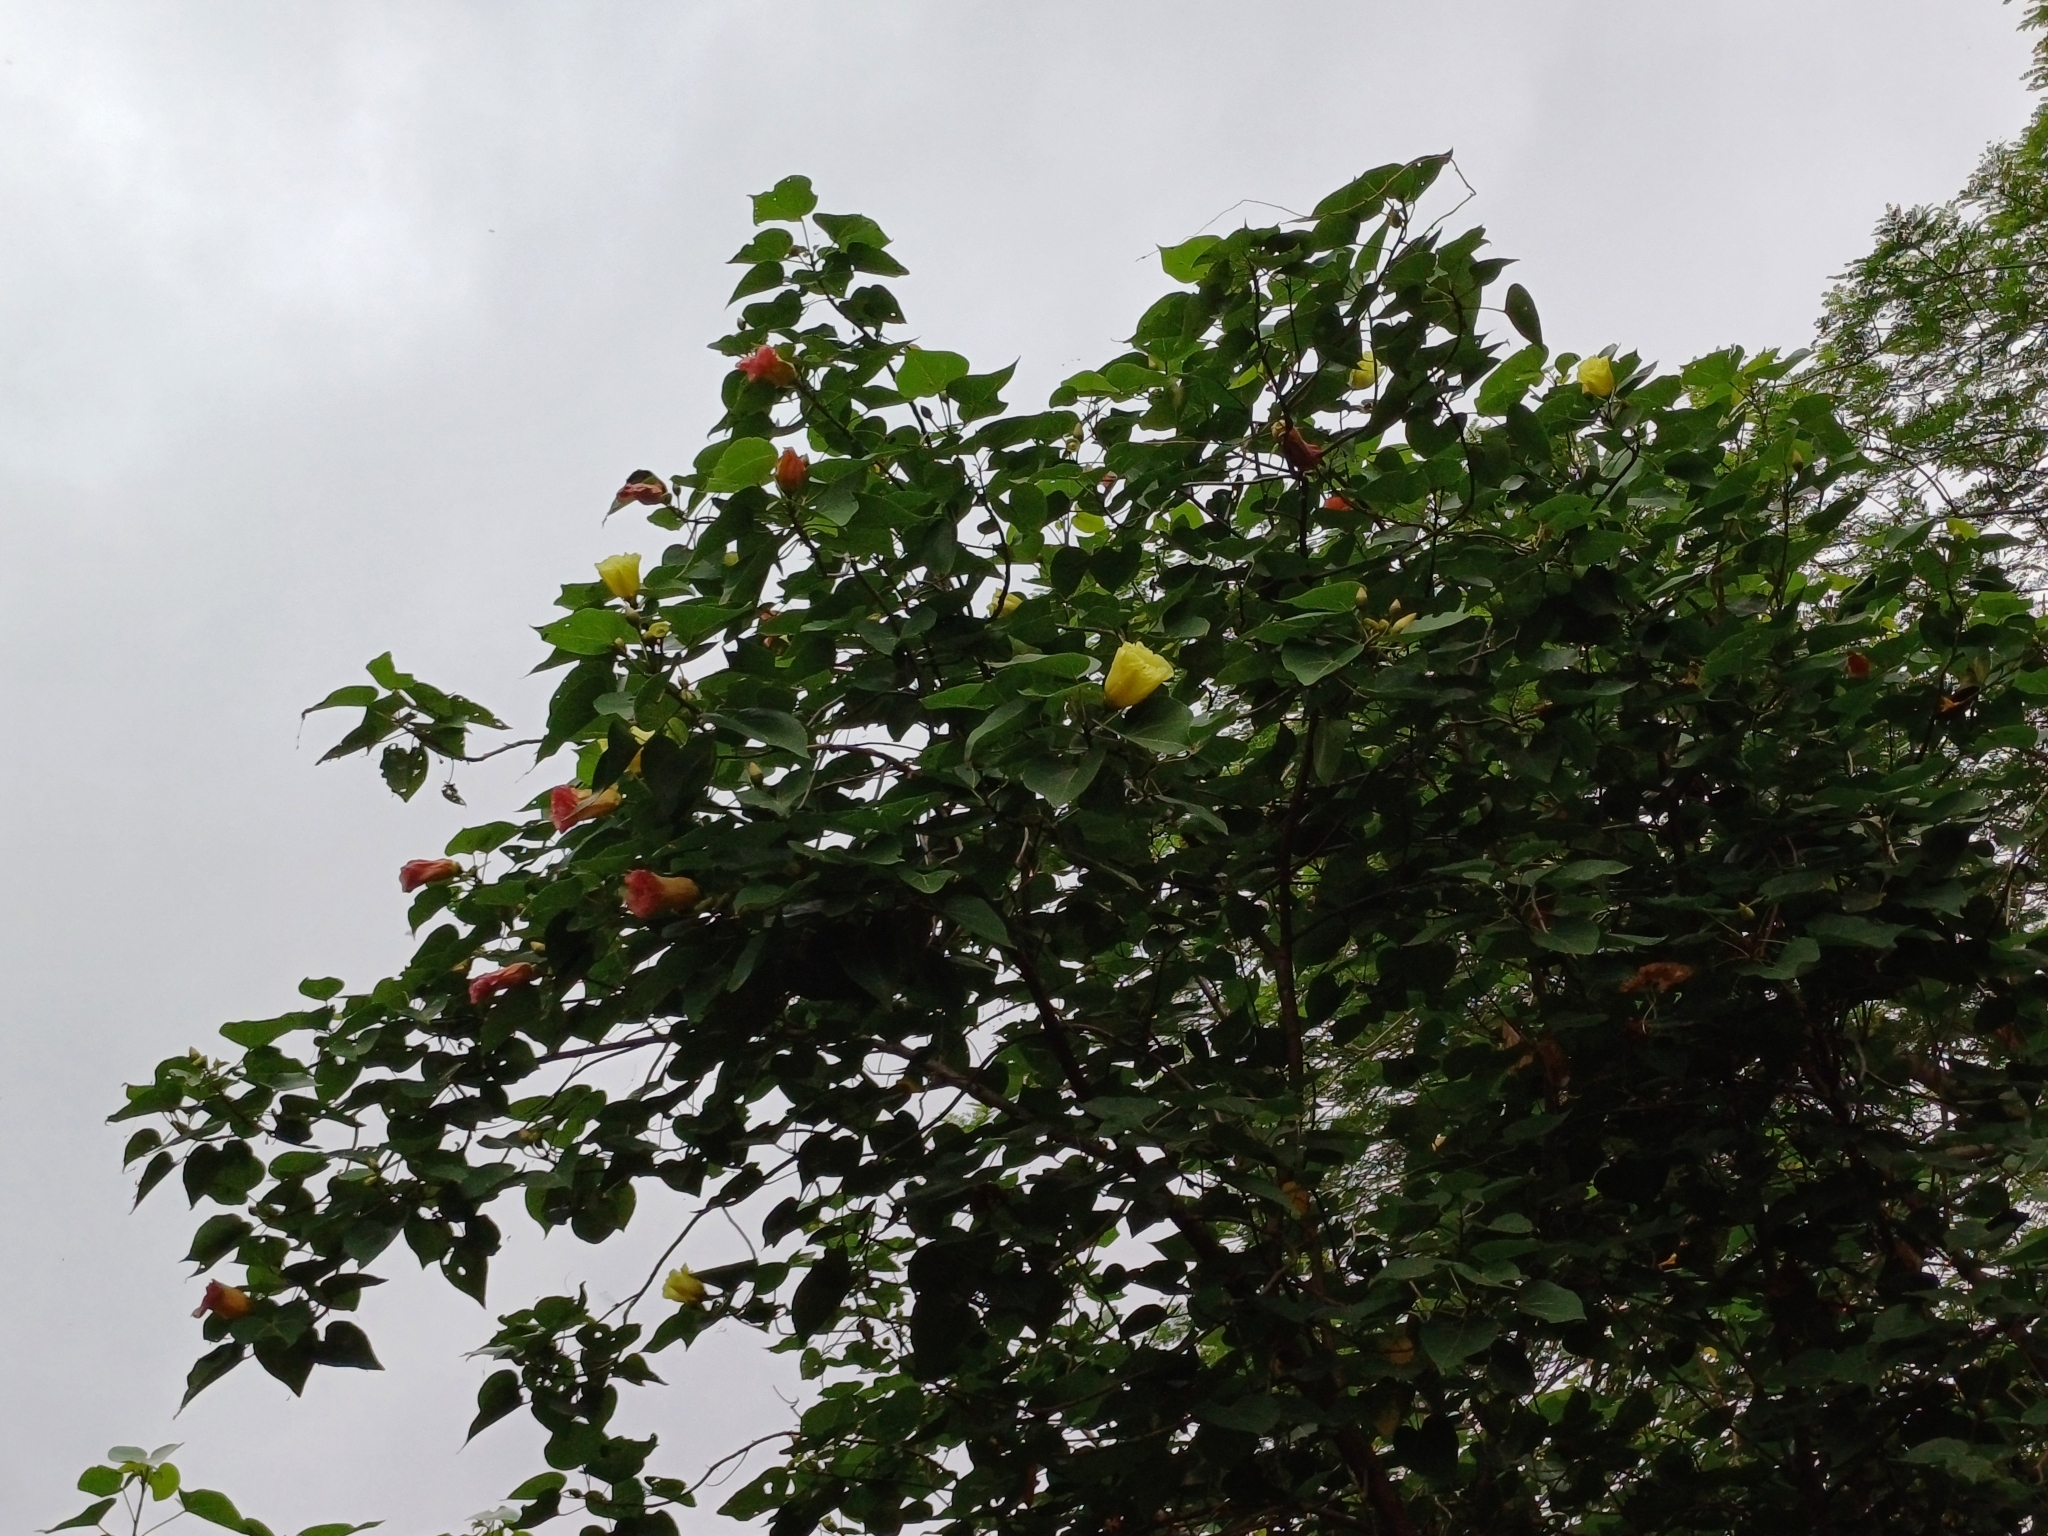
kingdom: Plantae
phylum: Tracheophyta
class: Magnoliopsida
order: Malvales
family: Malvaceae
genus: Thespesia
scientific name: Thespesia populnea
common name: Seaside mahoe
